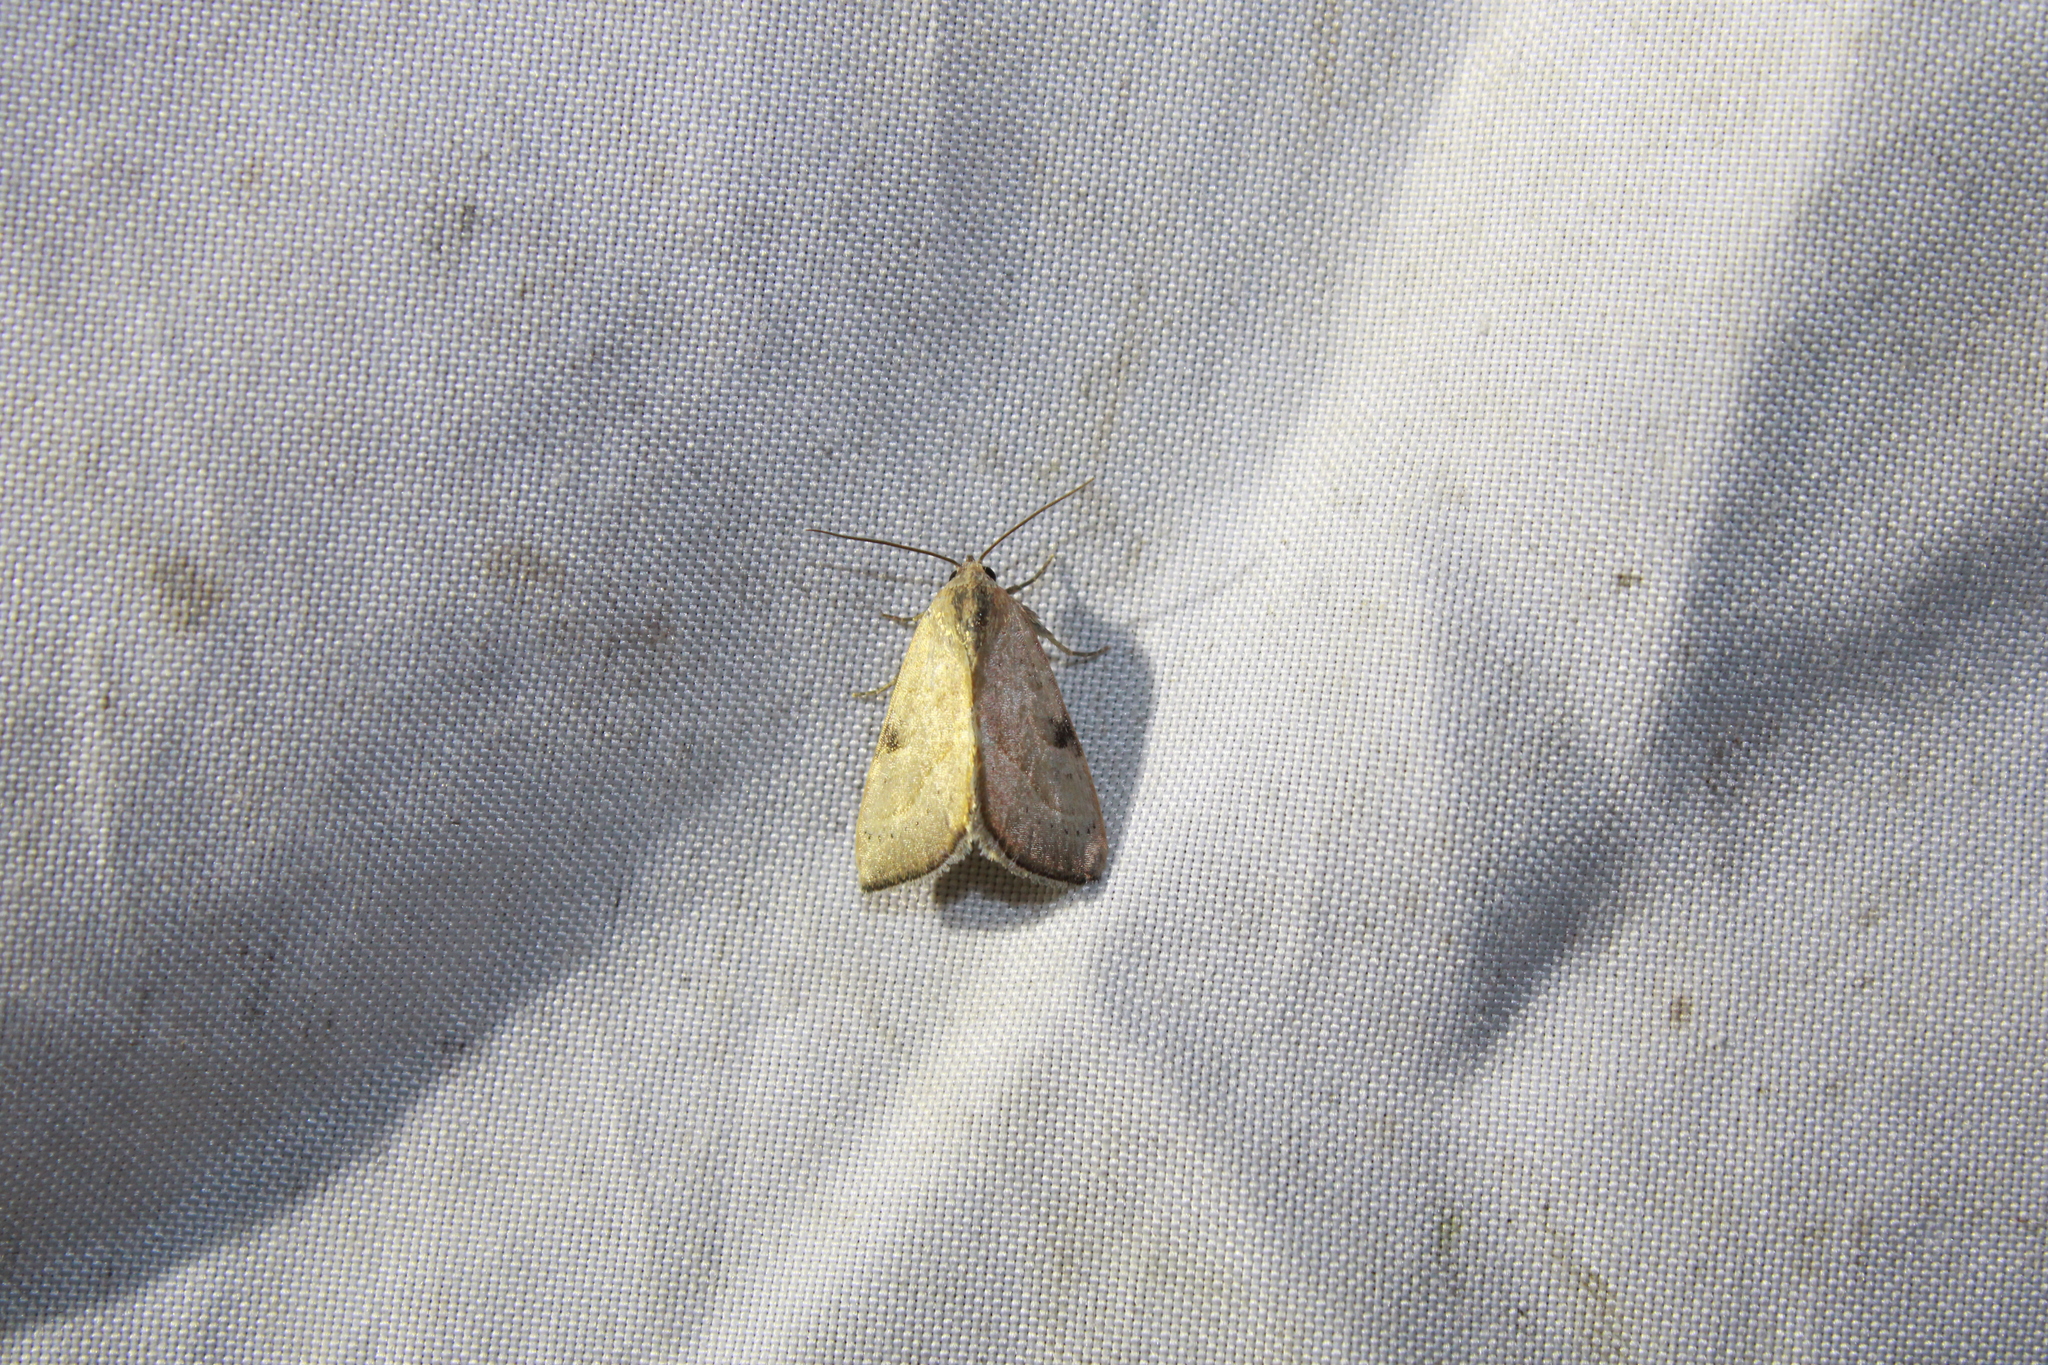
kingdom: Animalia
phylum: Arthropoda
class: Insecta
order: Lepidoptera
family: Noctuidae
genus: Galgula
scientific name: Galgula partita
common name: Wedgeling
